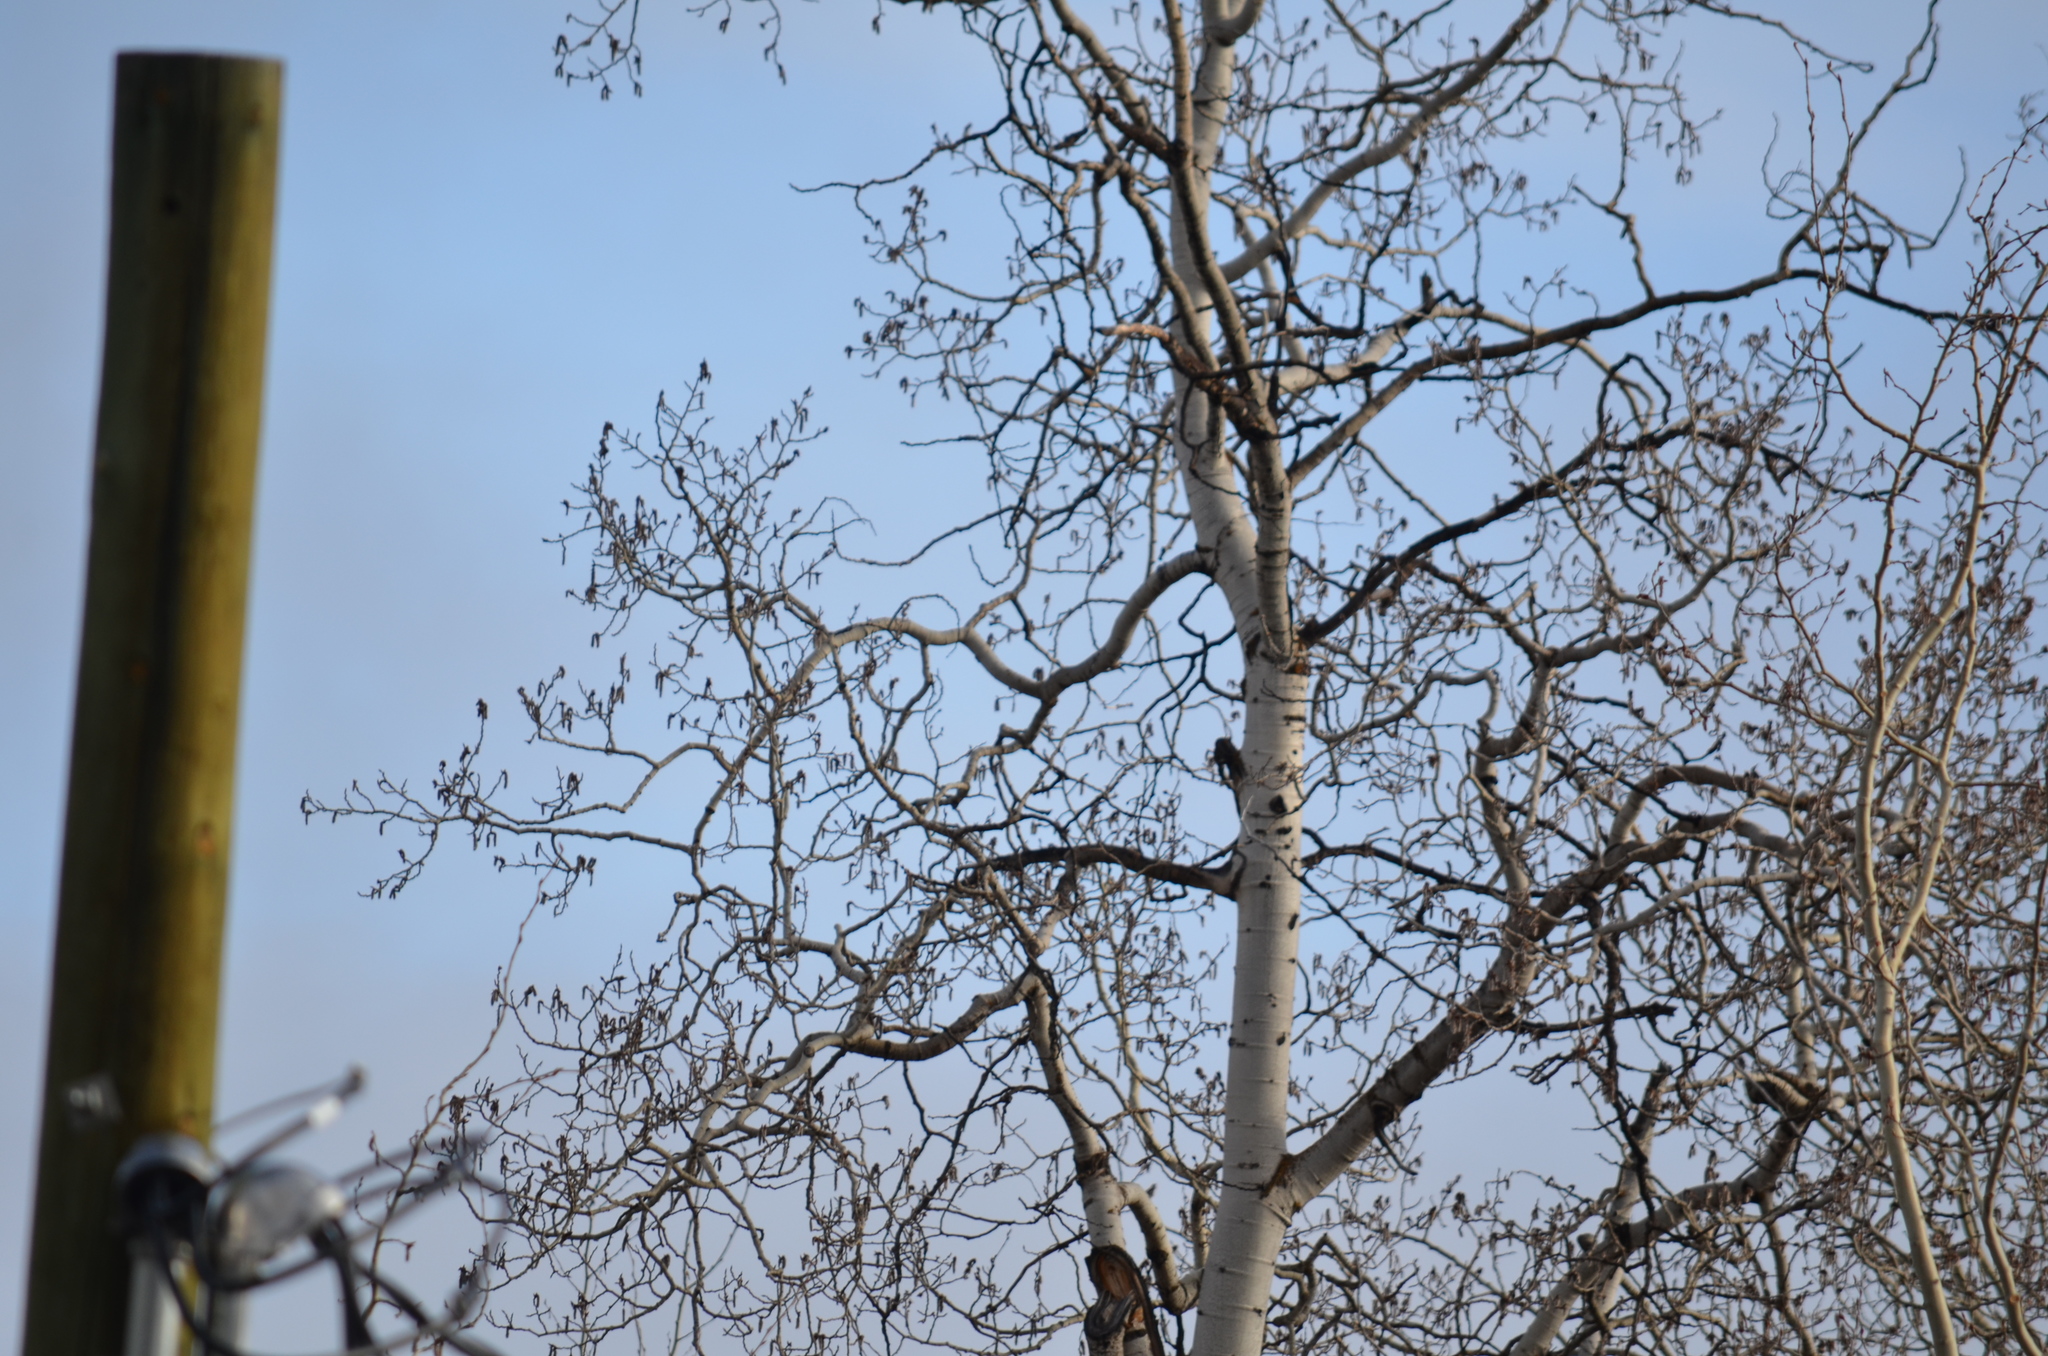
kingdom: Plantae
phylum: Tracheophyta
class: Magnoliopsida
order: Malpighiales
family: Salicaceae
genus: Populus
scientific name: Populus tremuloides
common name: Quaking aspen
